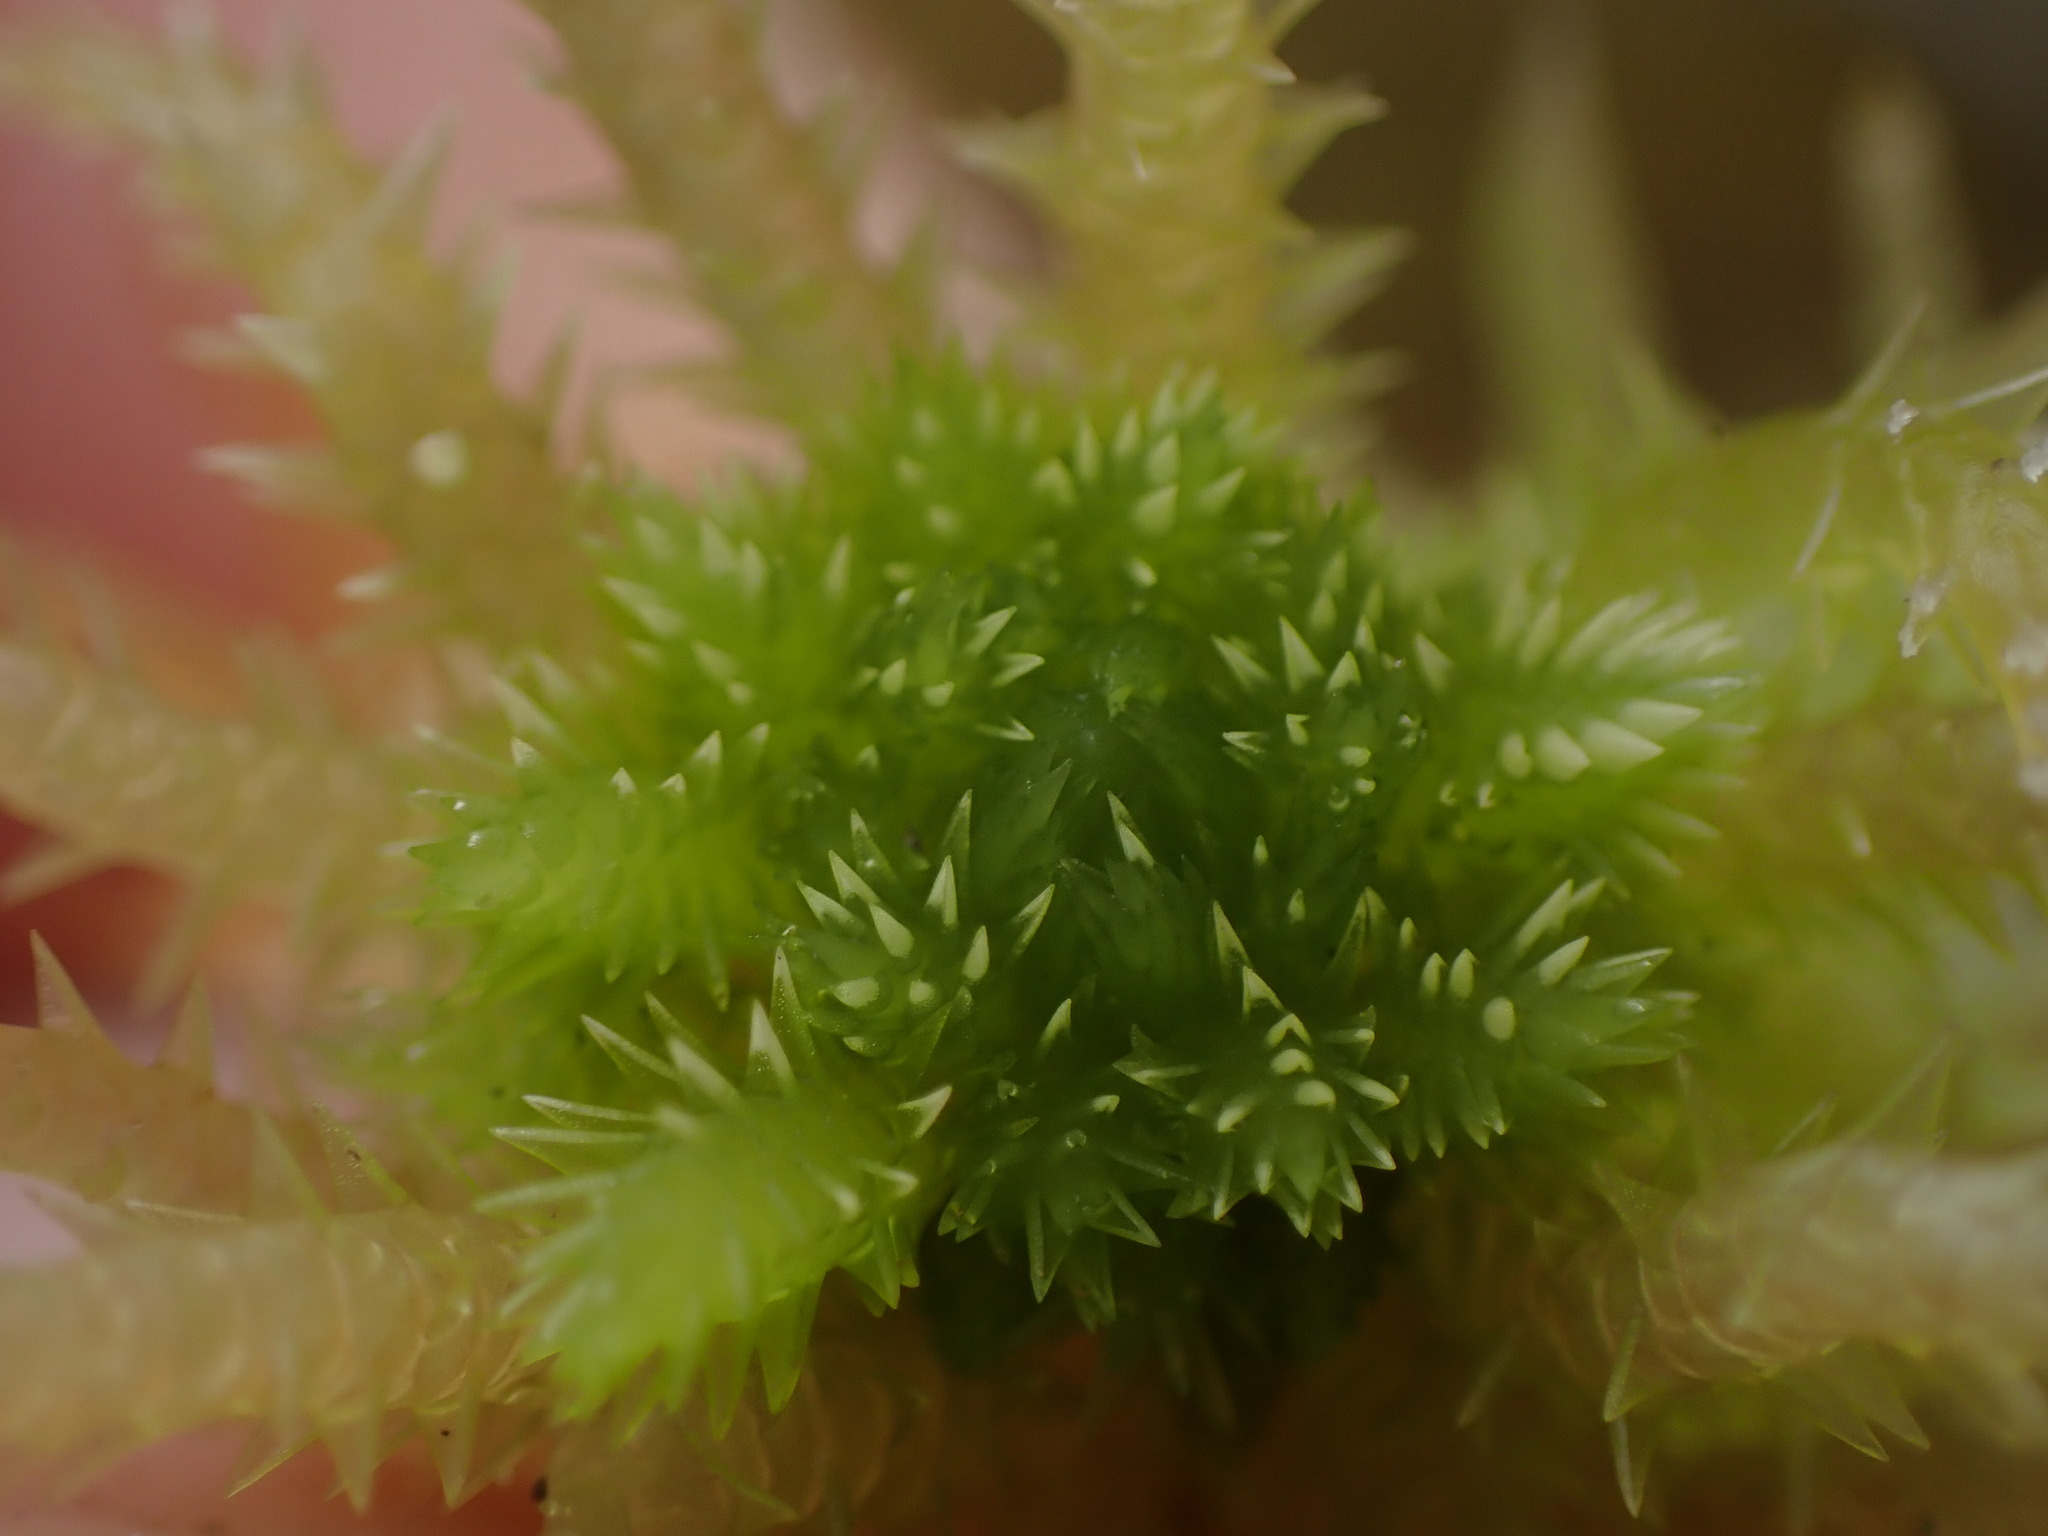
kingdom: Plantae
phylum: Bryophyta
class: Sphagnopsida
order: Sphagnales
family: Sphagnaceae
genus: Sphagnum
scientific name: Sphagnum squarrosum
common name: Shaggy peat moss
